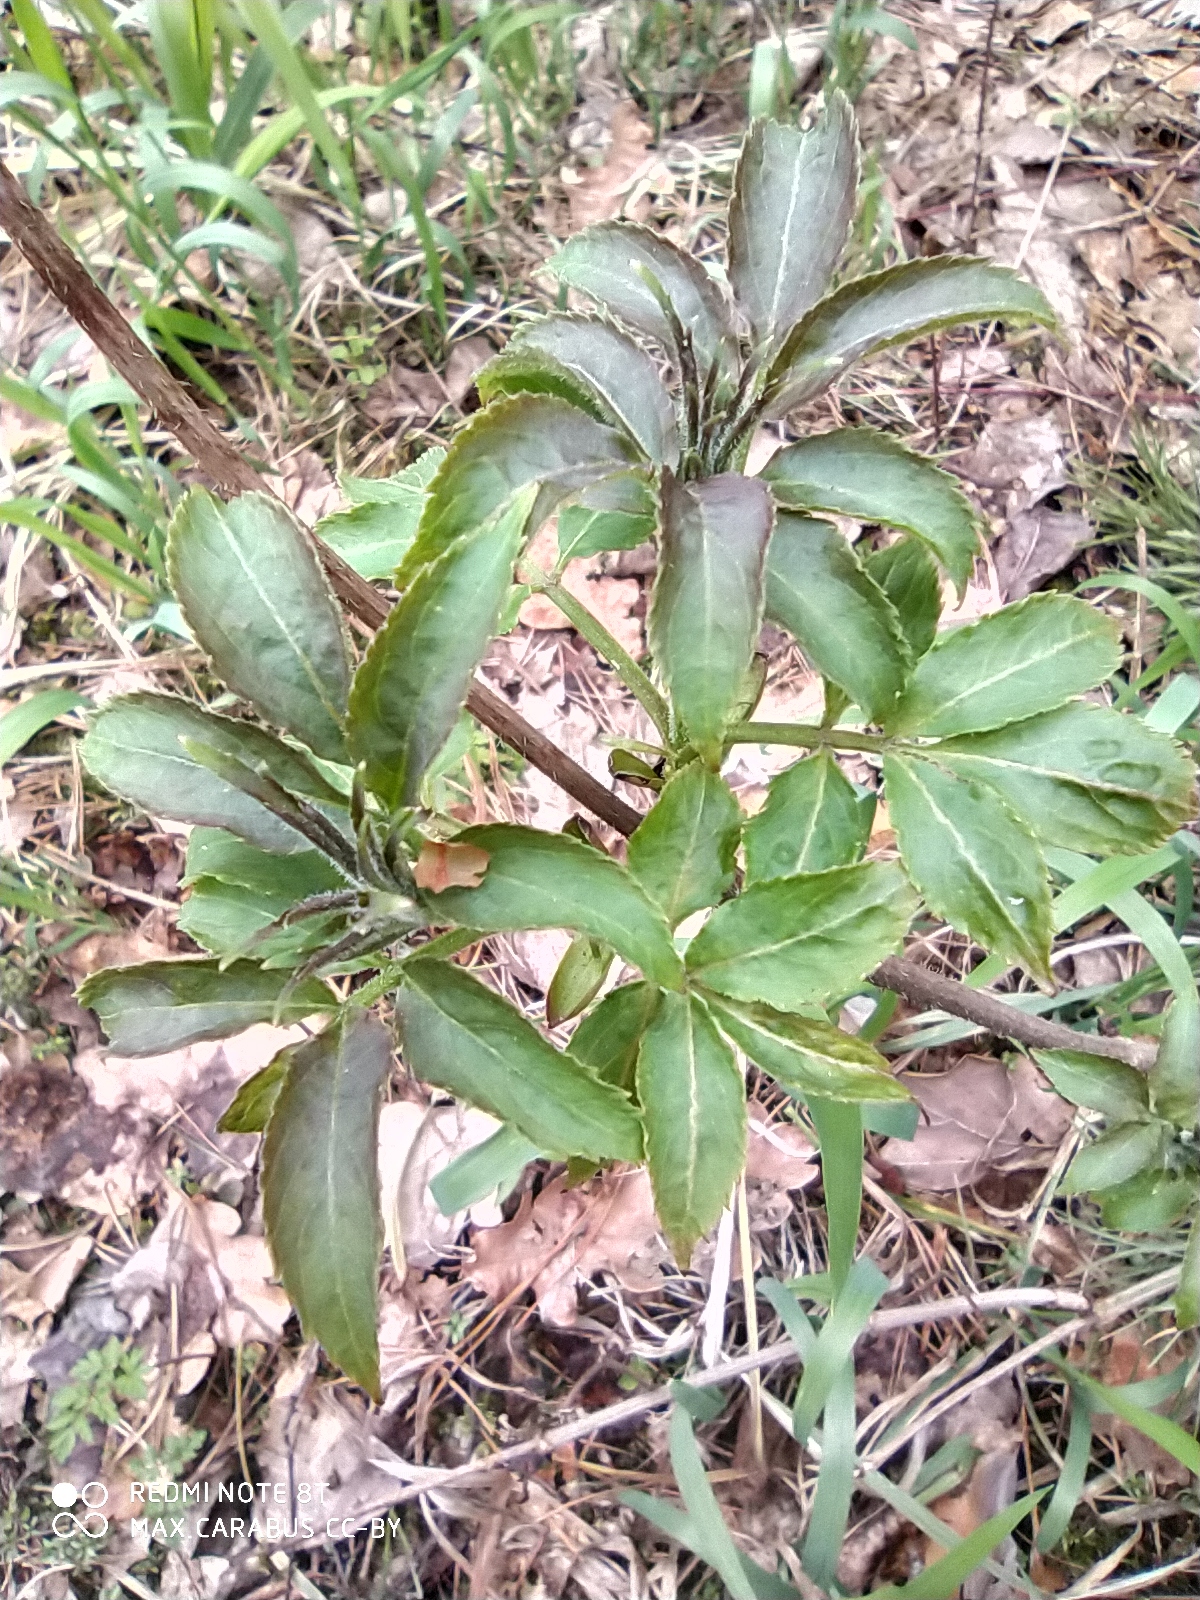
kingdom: Plantae
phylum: Tracheophyta
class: Magnoliopsida
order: Dipsacales
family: Viburnaceae
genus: Sambucus
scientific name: Sambucus racemosa
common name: Red-berried elder
